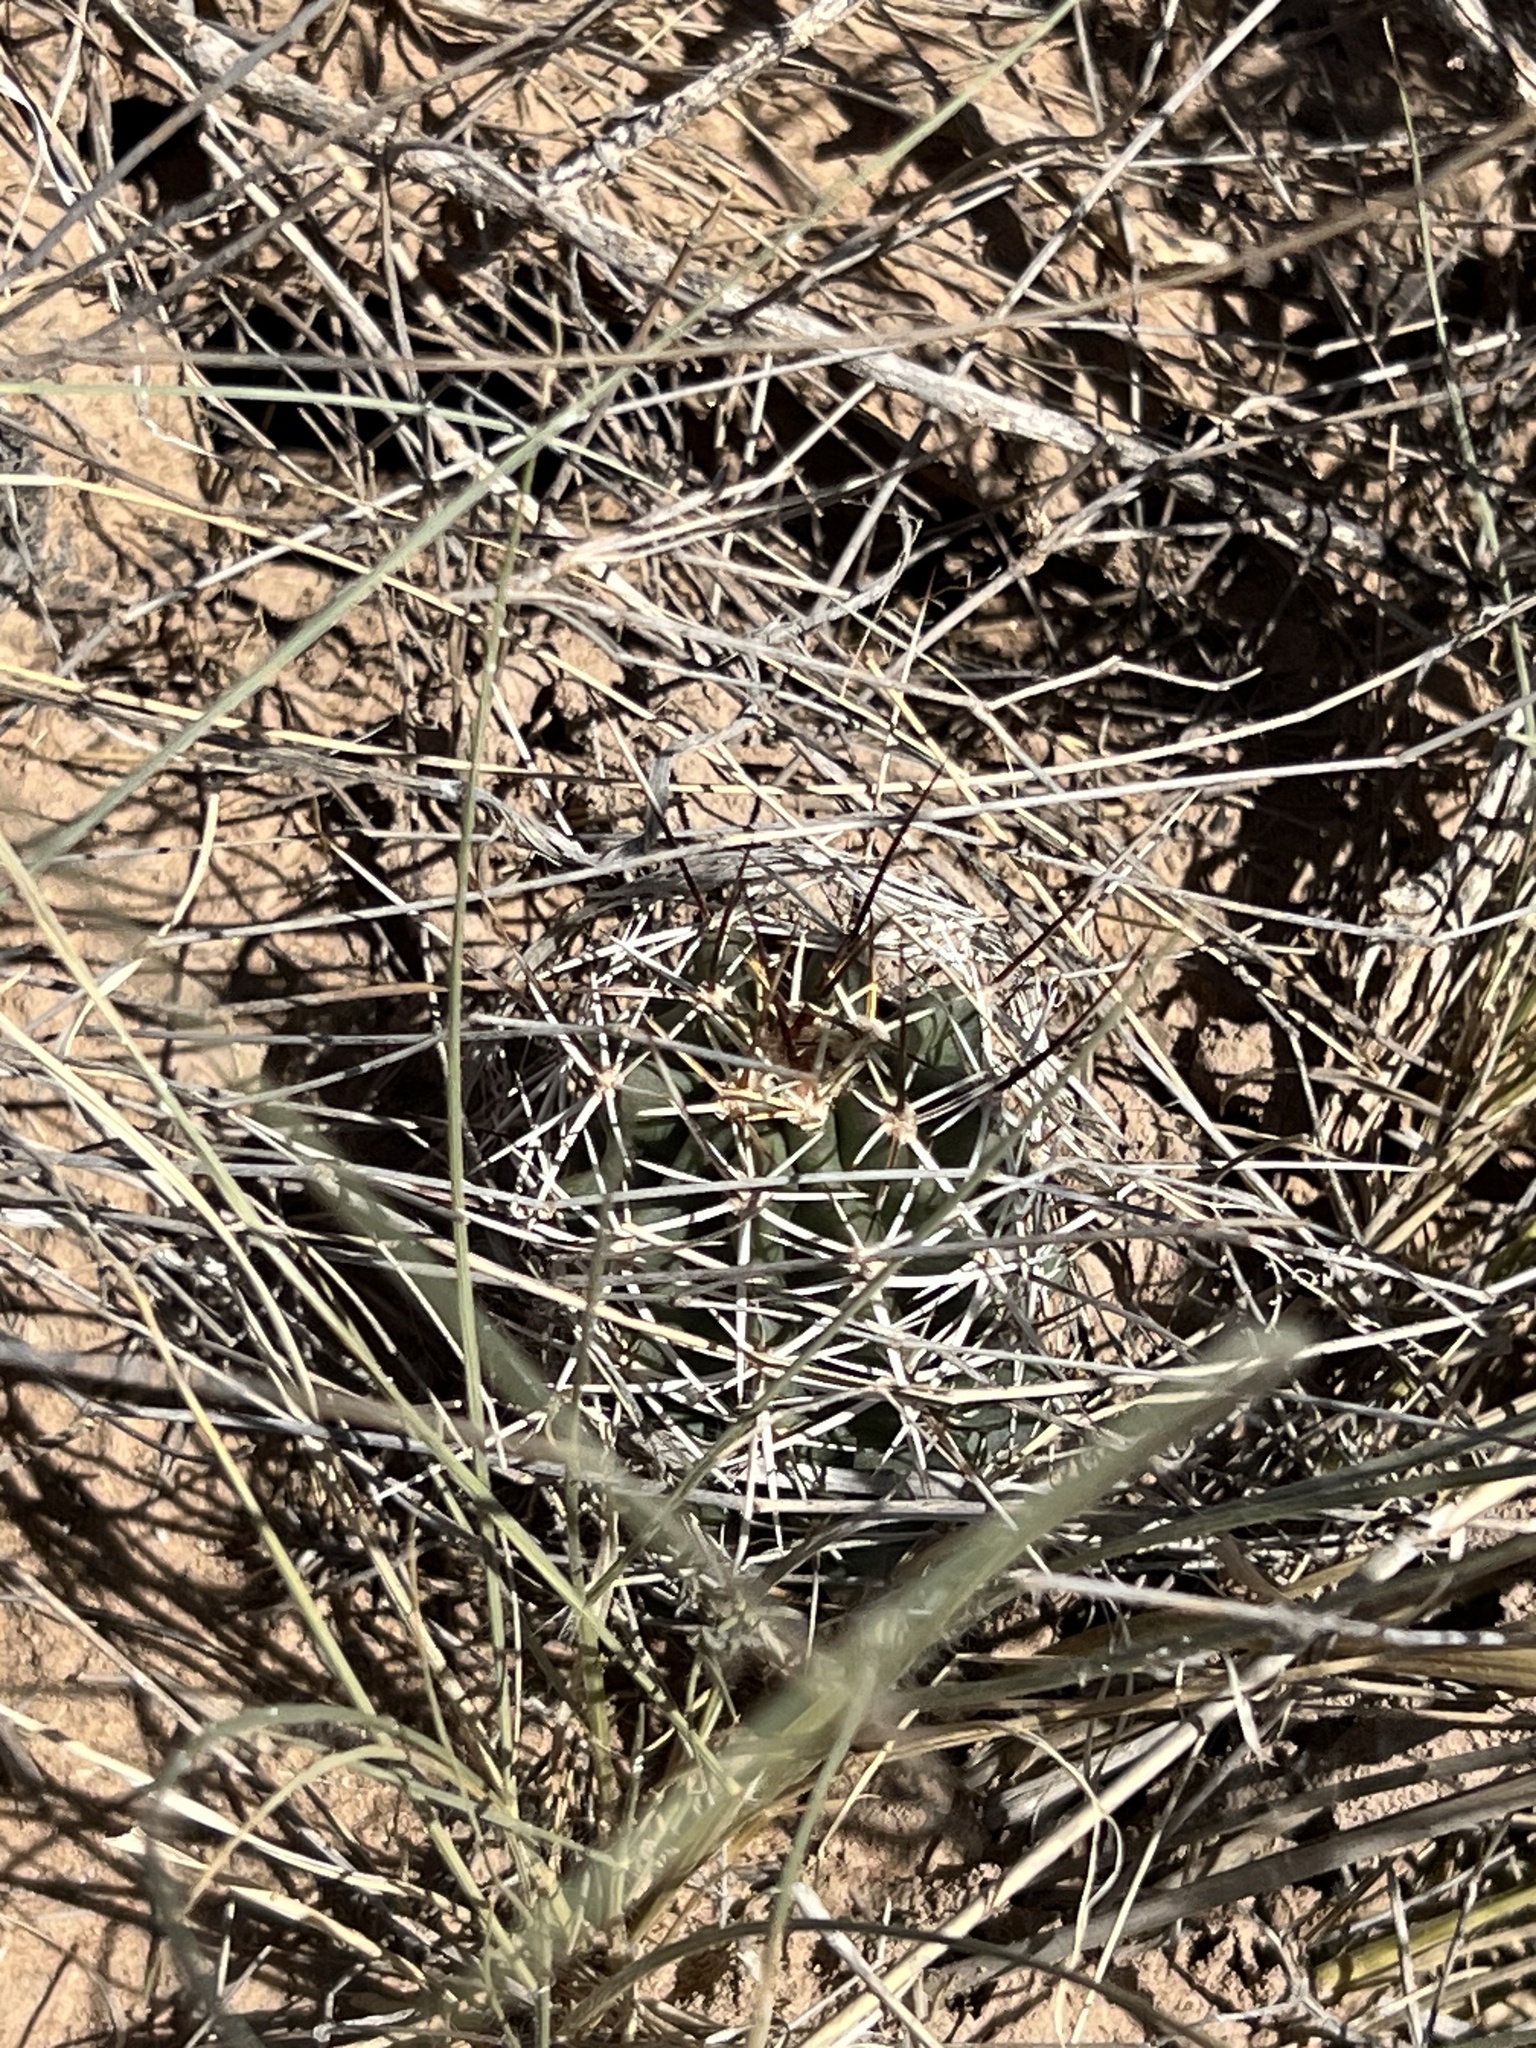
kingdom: Plantae
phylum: Tracheophyta
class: Magnoliopsida
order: Caryophyllales
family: Cactaceae
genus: Echinocereus
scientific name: Echinocereus fendleri
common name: Fendler's hedgehog cactus
